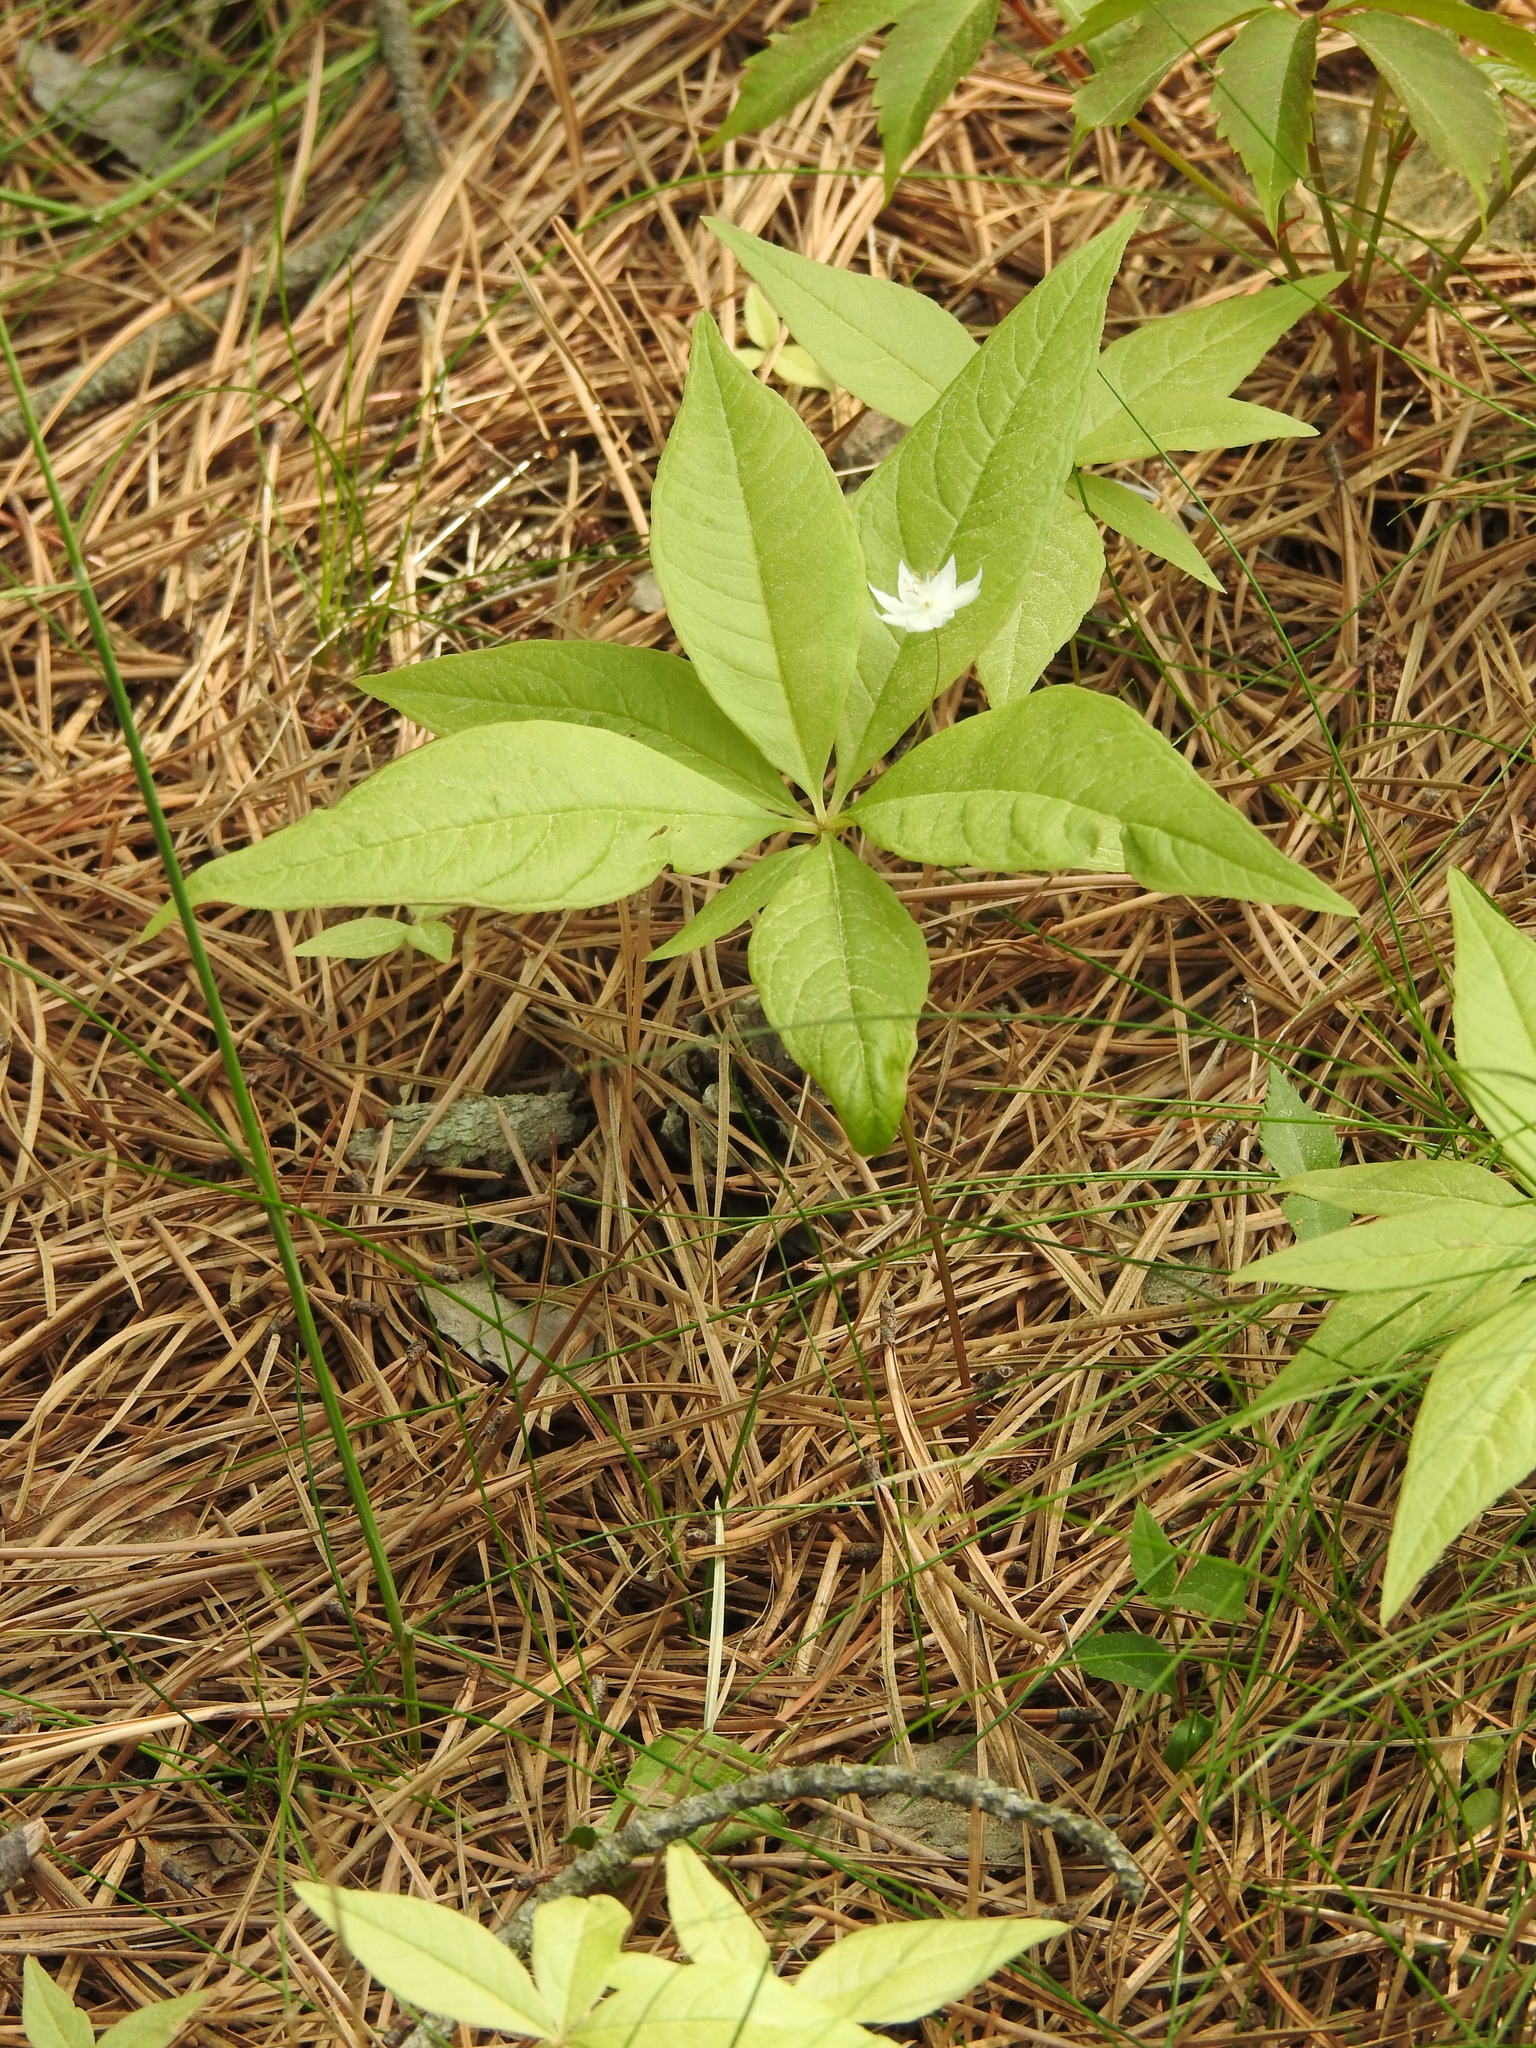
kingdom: Plantae
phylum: Tracheophyta
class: Magnoliopsida
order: Ericales
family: Primulaceae
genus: Lysimachia
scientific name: Lysimachia borealis
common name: American starflower
